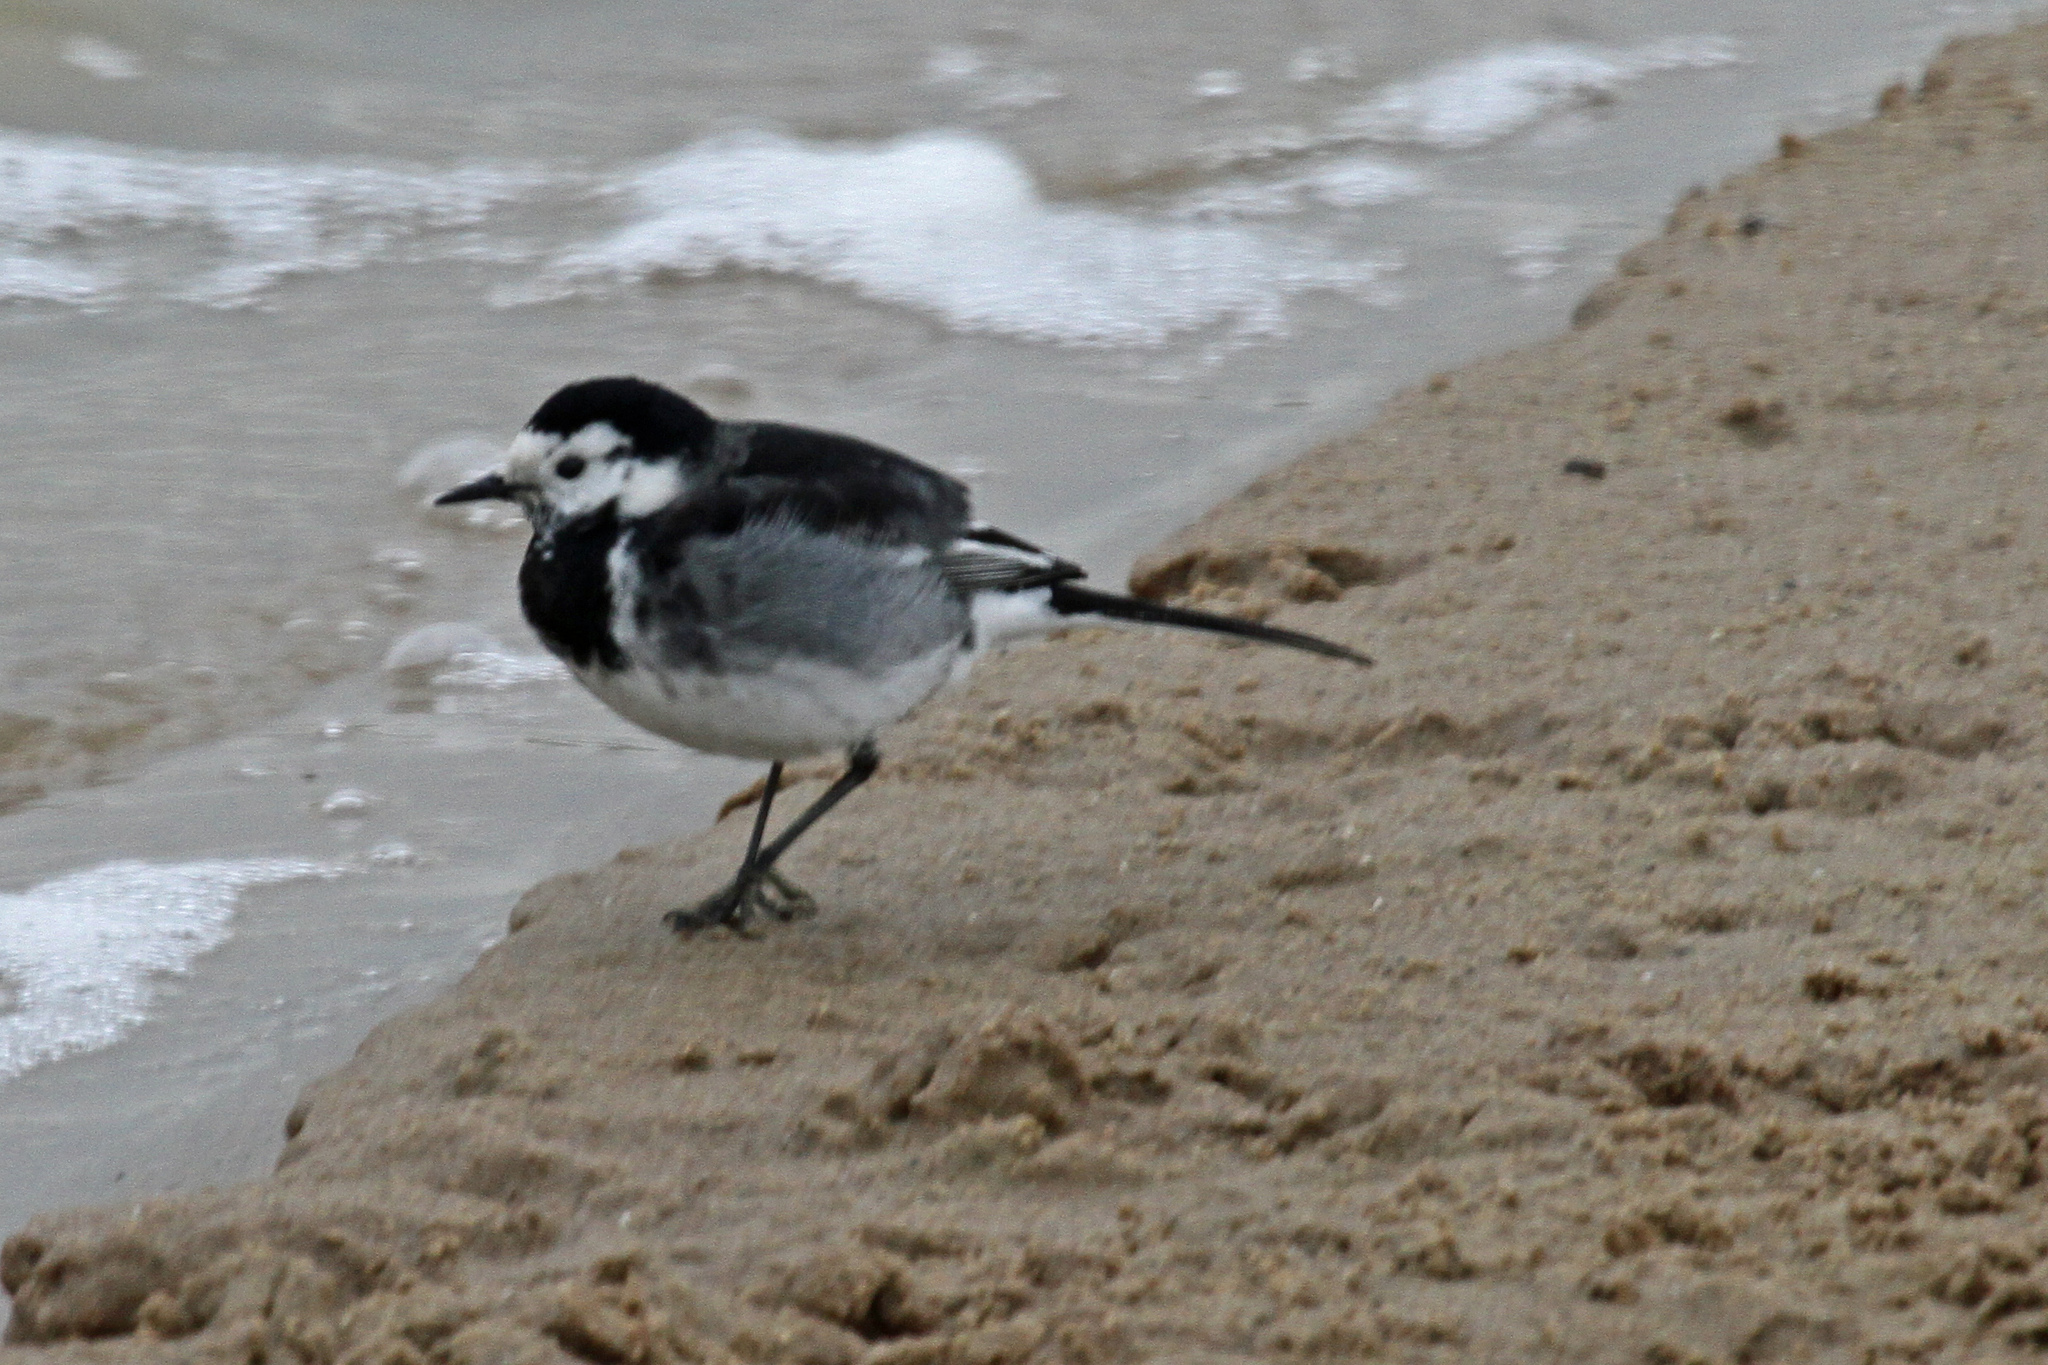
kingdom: Animalia
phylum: Chordata
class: Aves
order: Passeriformes
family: Motacillidae
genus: Motacilla
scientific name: Motacilla alba
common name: White wagtail
